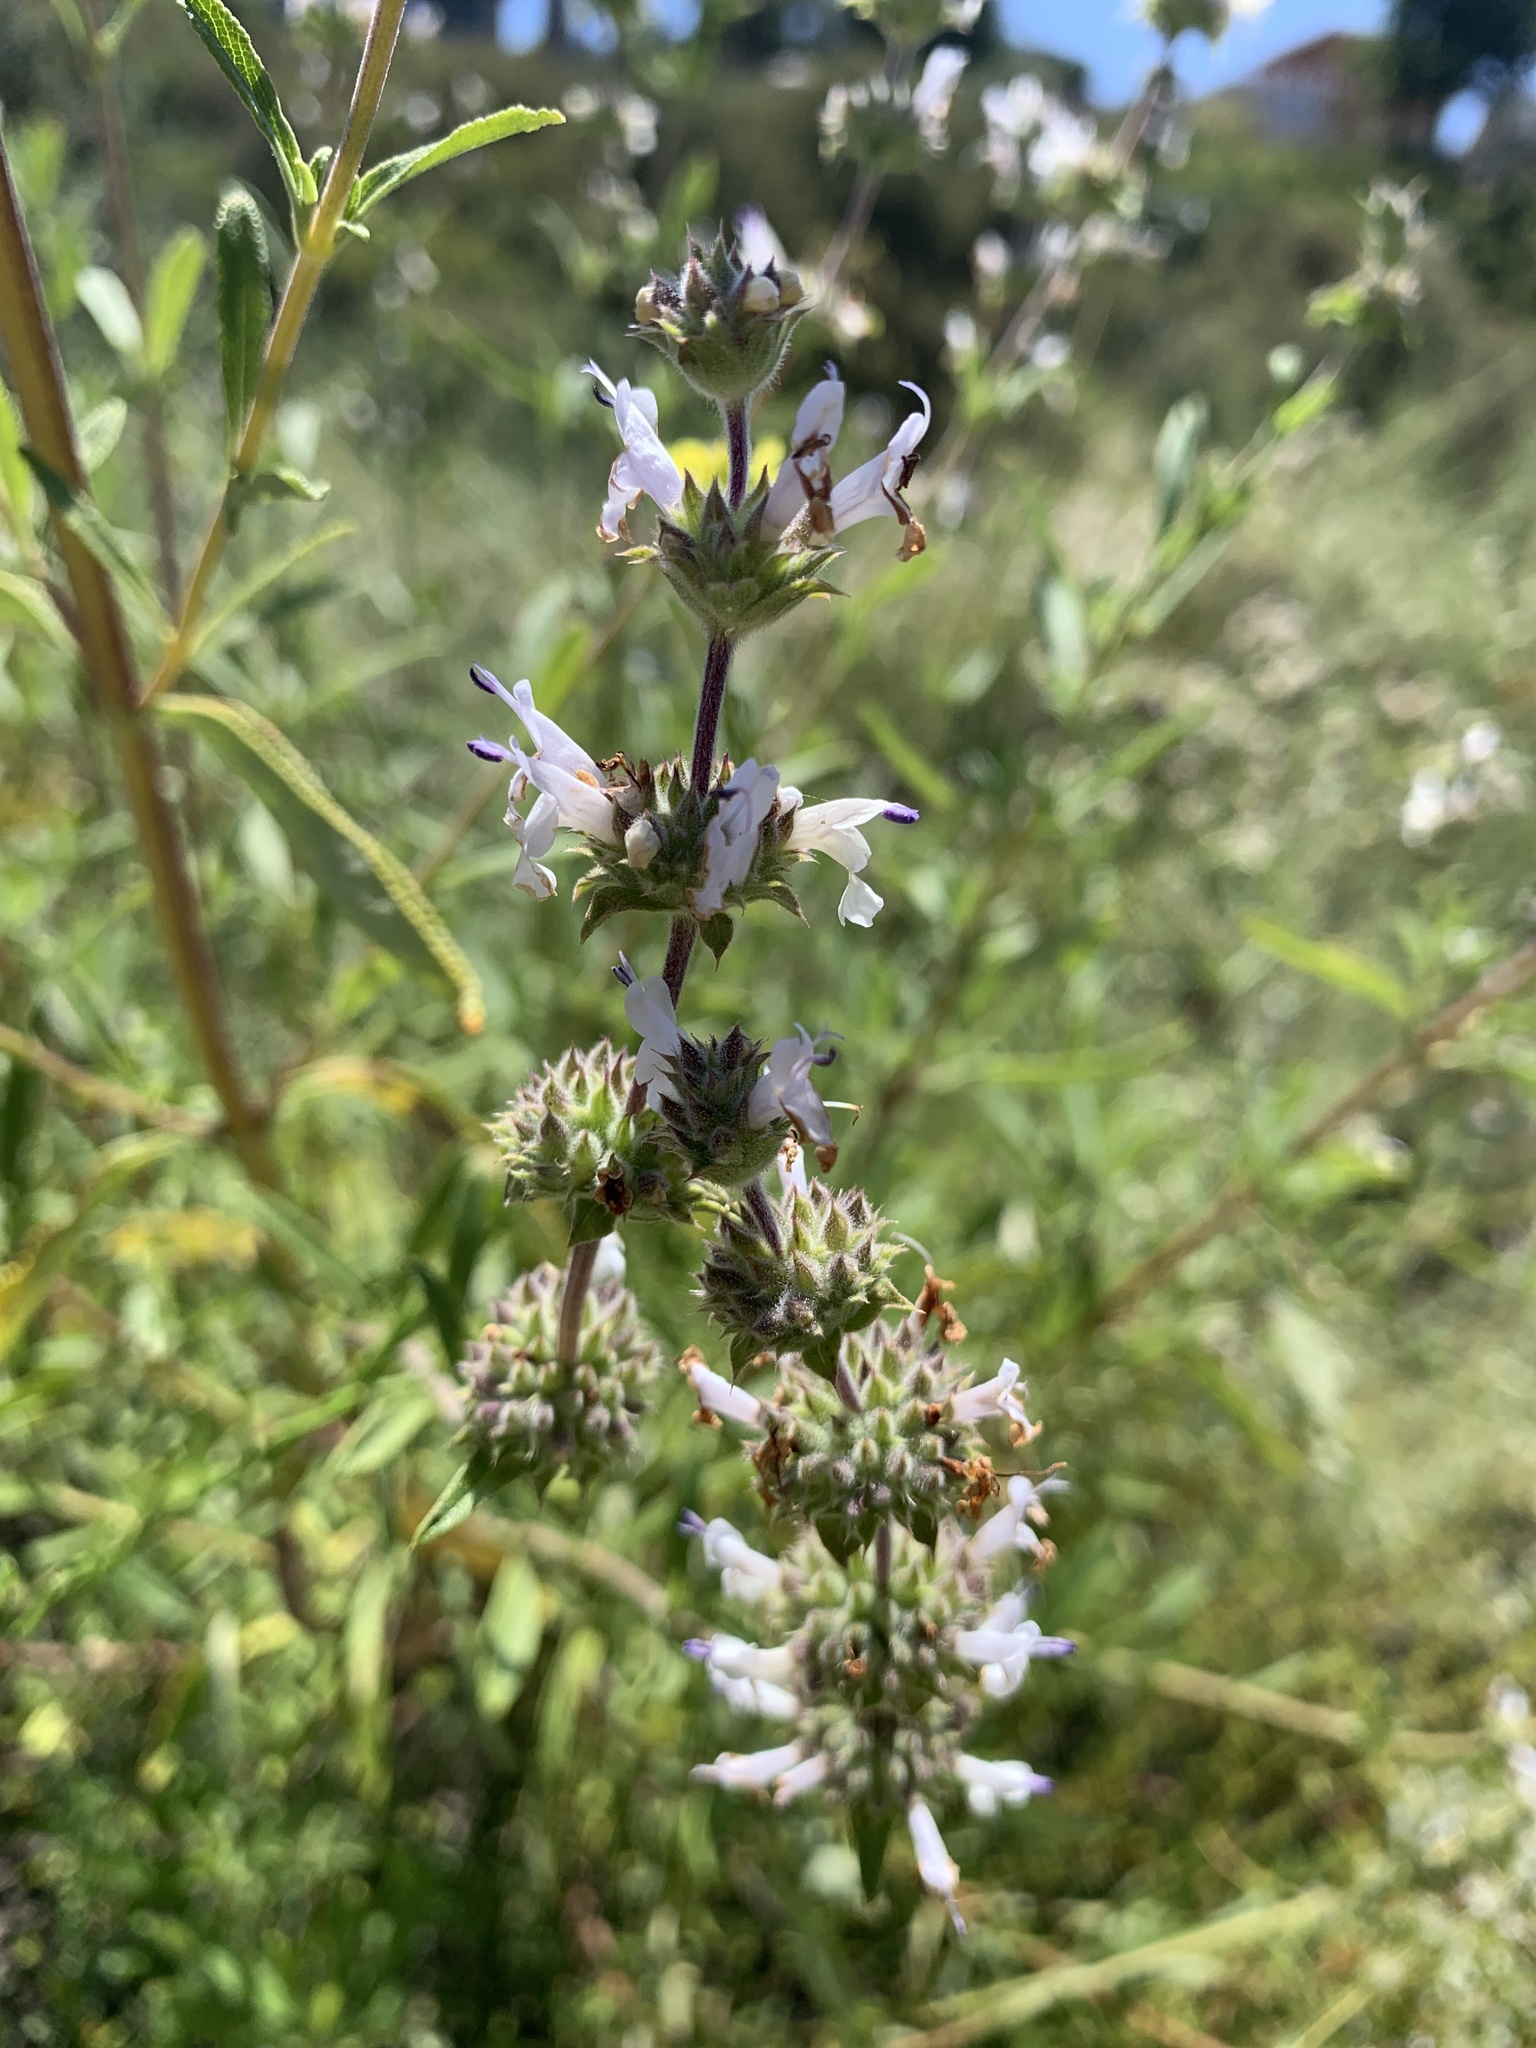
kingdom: Plantae
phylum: Tracheophyta
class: Magnoliopsida
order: Lamiales
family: Lamiaceae
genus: Salvia
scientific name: Salvia mellifera
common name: Black sage
